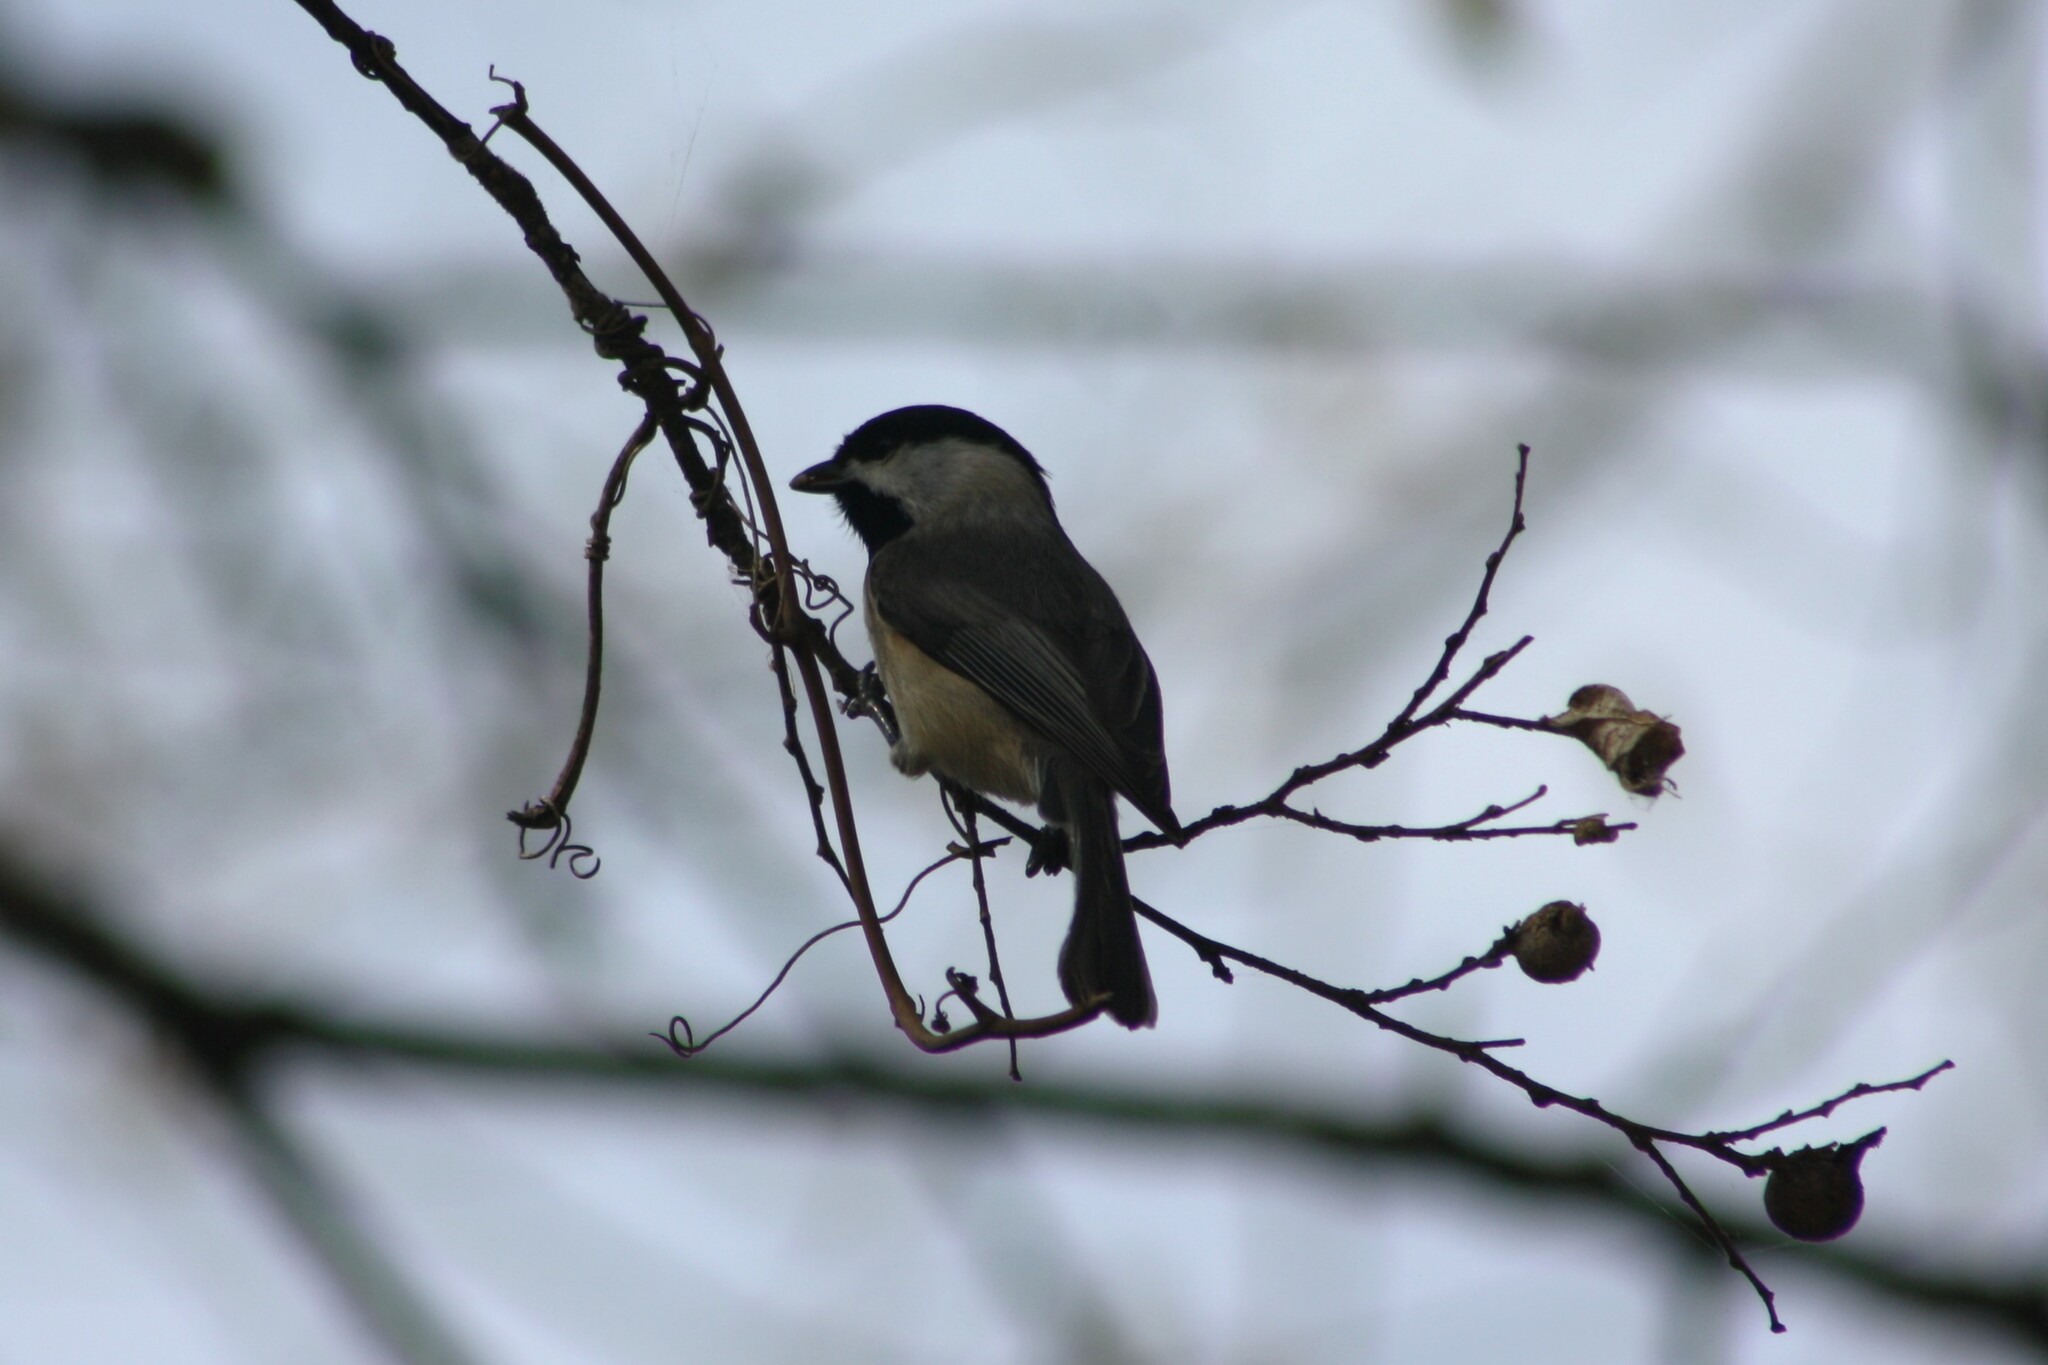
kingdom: Animalia
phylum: Chordata
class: Aves
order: Passeriformes
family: Paridae
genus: Poecile
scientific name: Poecile carolinensis
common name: Carolina chickadee
